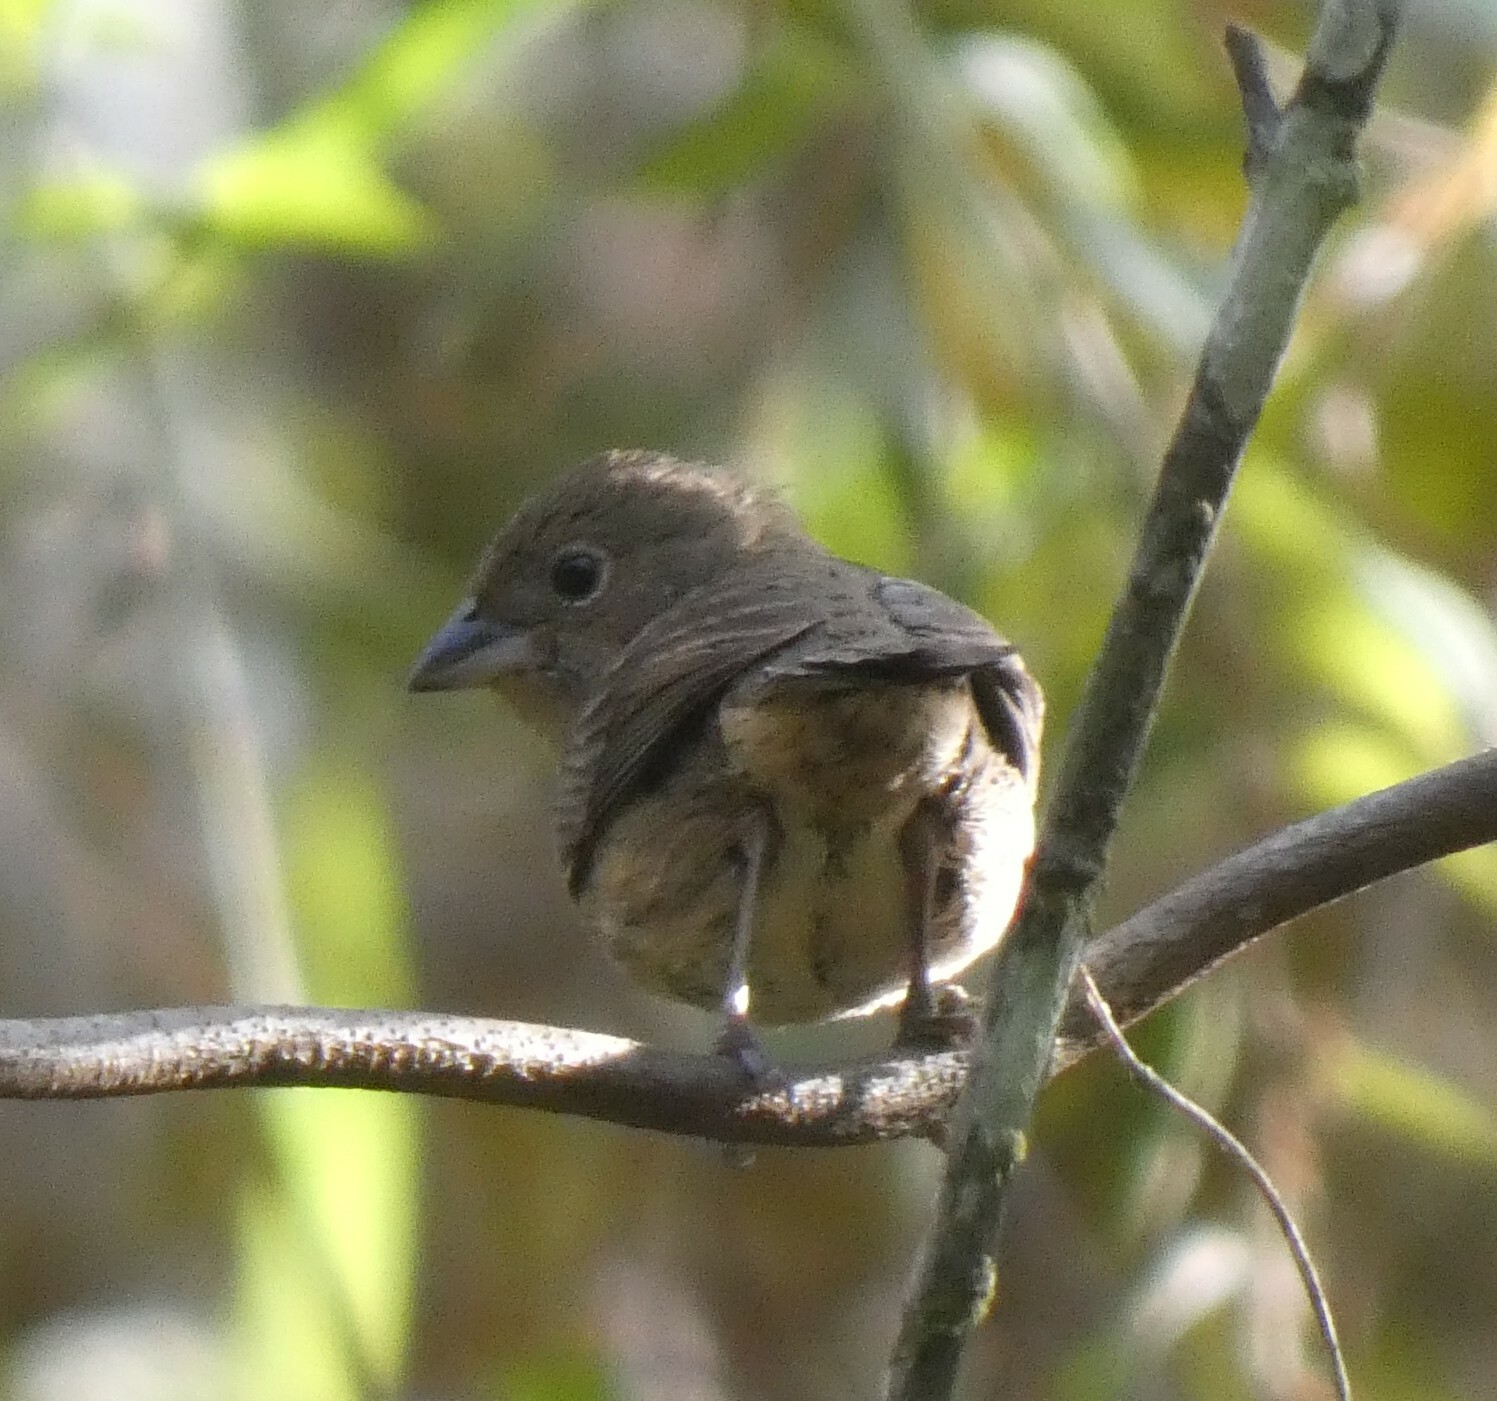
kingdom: Animalia
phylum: Chordata
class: Aves
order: Passeriformes
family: Thraupidae
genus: Volatinia
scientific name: Volatinia jacarina
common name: Blue-black grassquit
